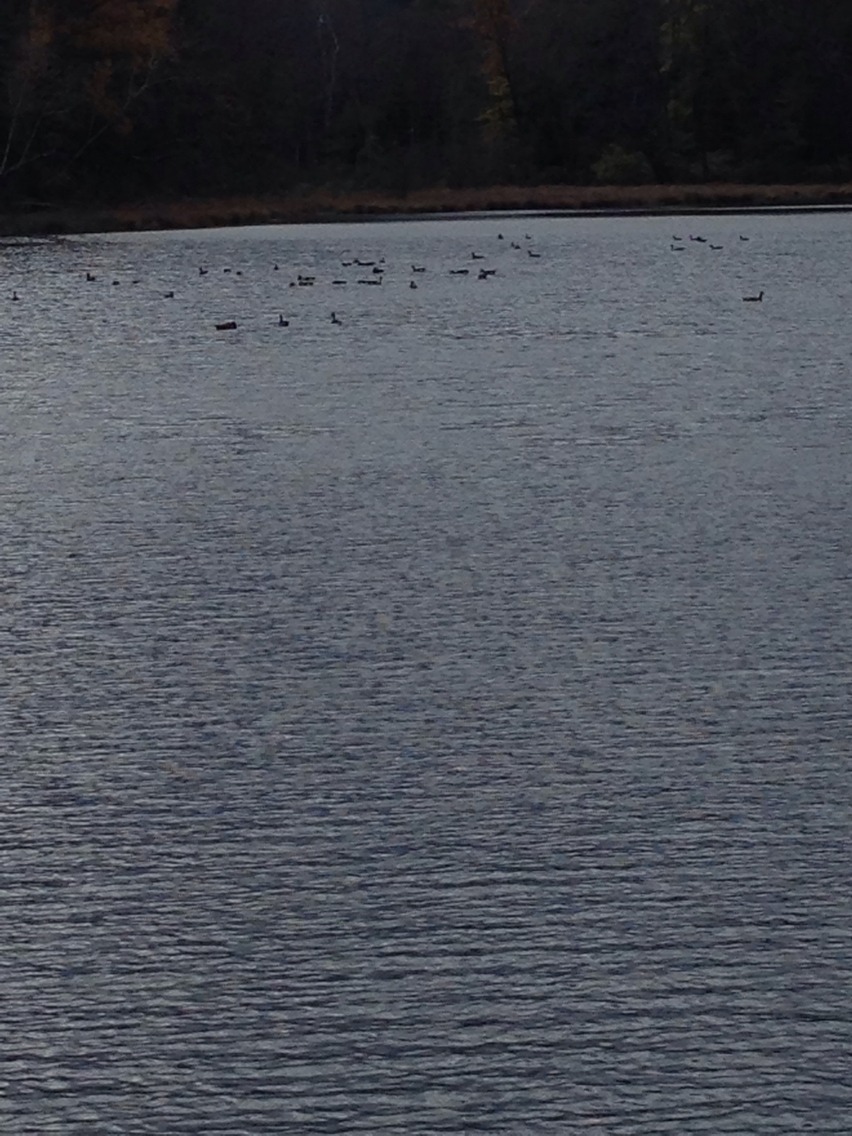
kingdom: Animalia
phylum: Chordata
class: Aves
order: Anseriformes
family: Anatidae
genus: Branta
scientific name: Branta canadensis
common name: Canada goose
